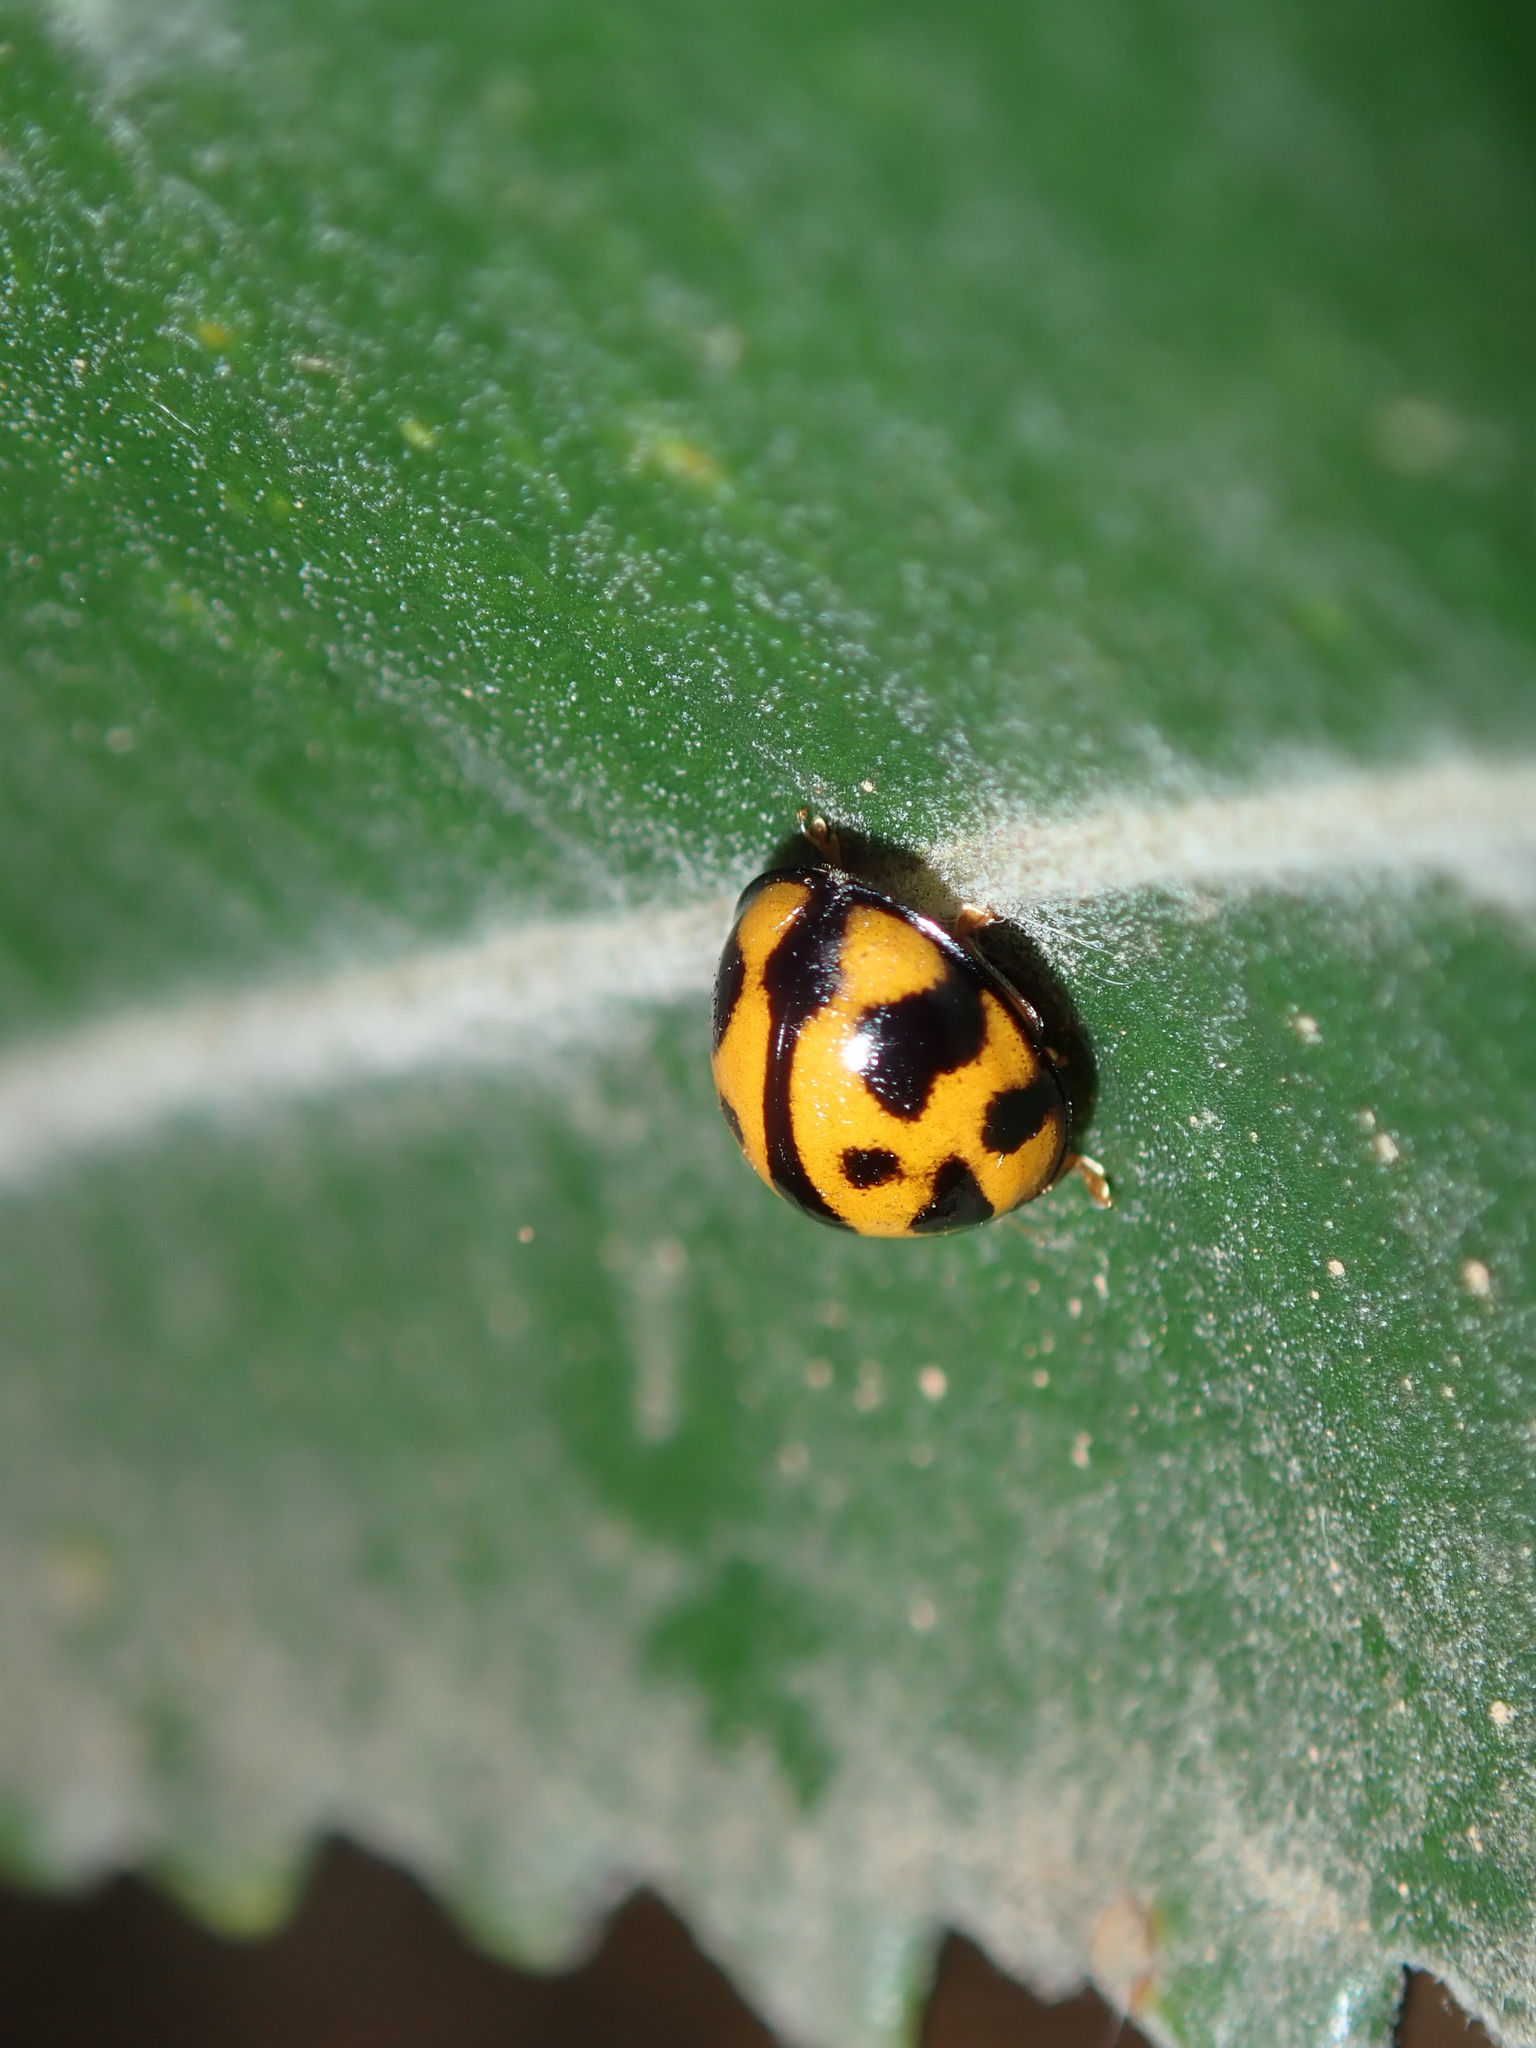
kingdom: Animalia
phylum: Arthropoda
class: Insecta
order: Coleoptera
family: Coccinellidae
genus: Coelophora
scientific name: Coelophora inaequalis
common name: Common australian lady beetle
